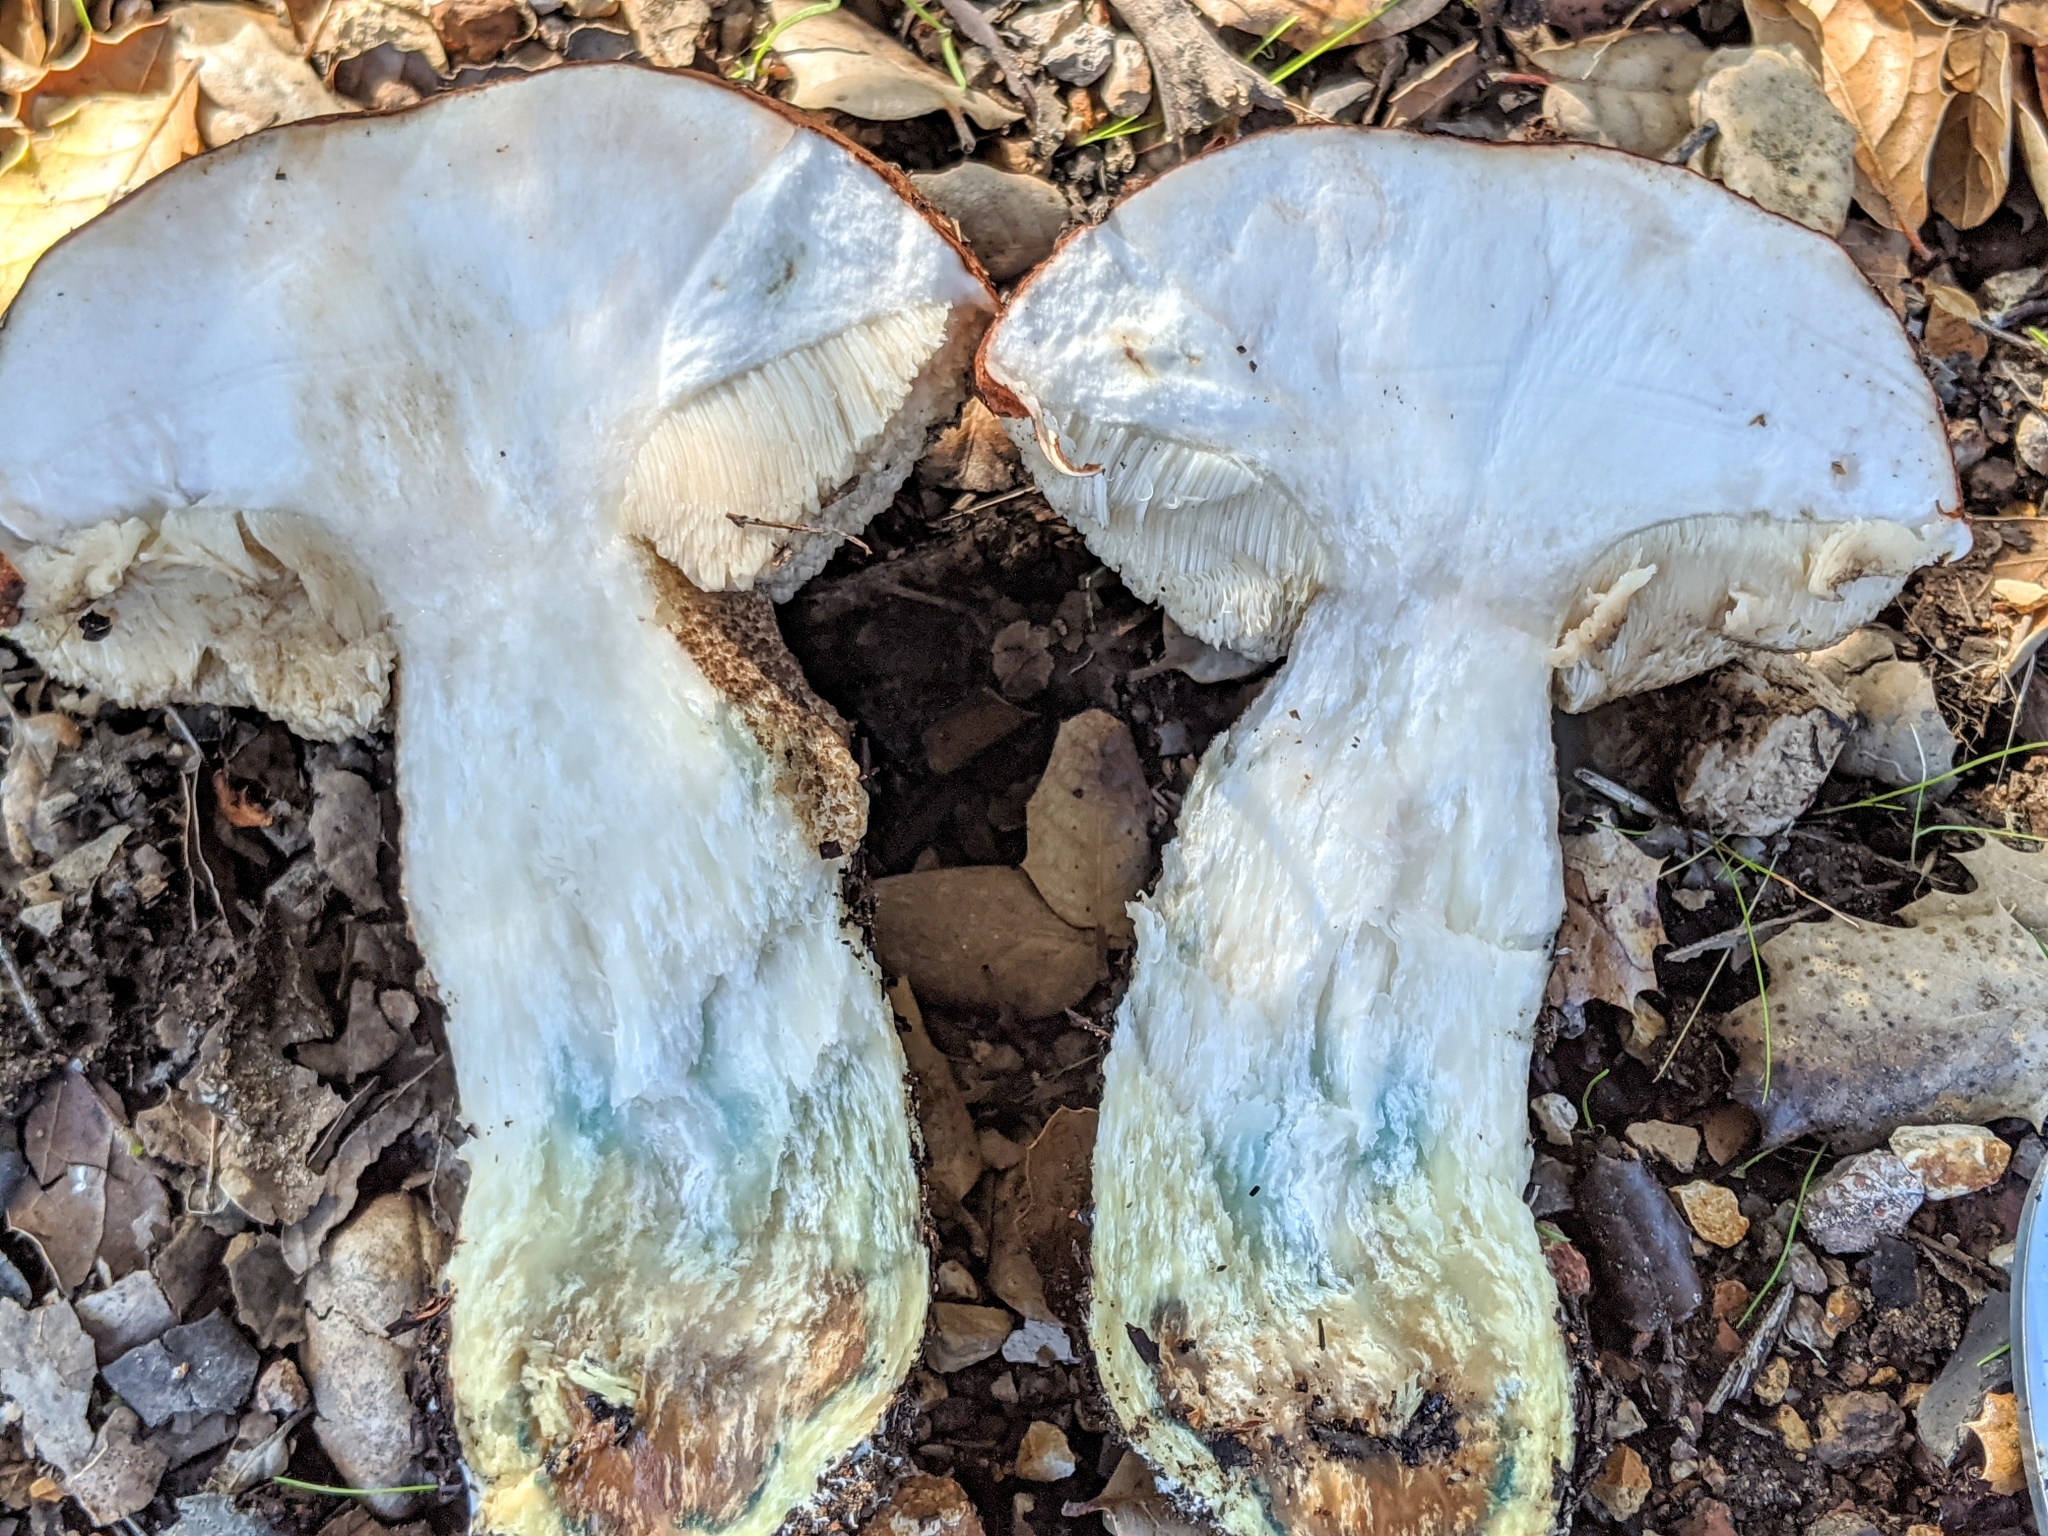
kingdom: Fungi
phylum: Basidiomycota
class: Agaricomycetes
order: Boletales
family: Boletaceae
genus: Leccinum
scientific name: Leccinum manzanitae
